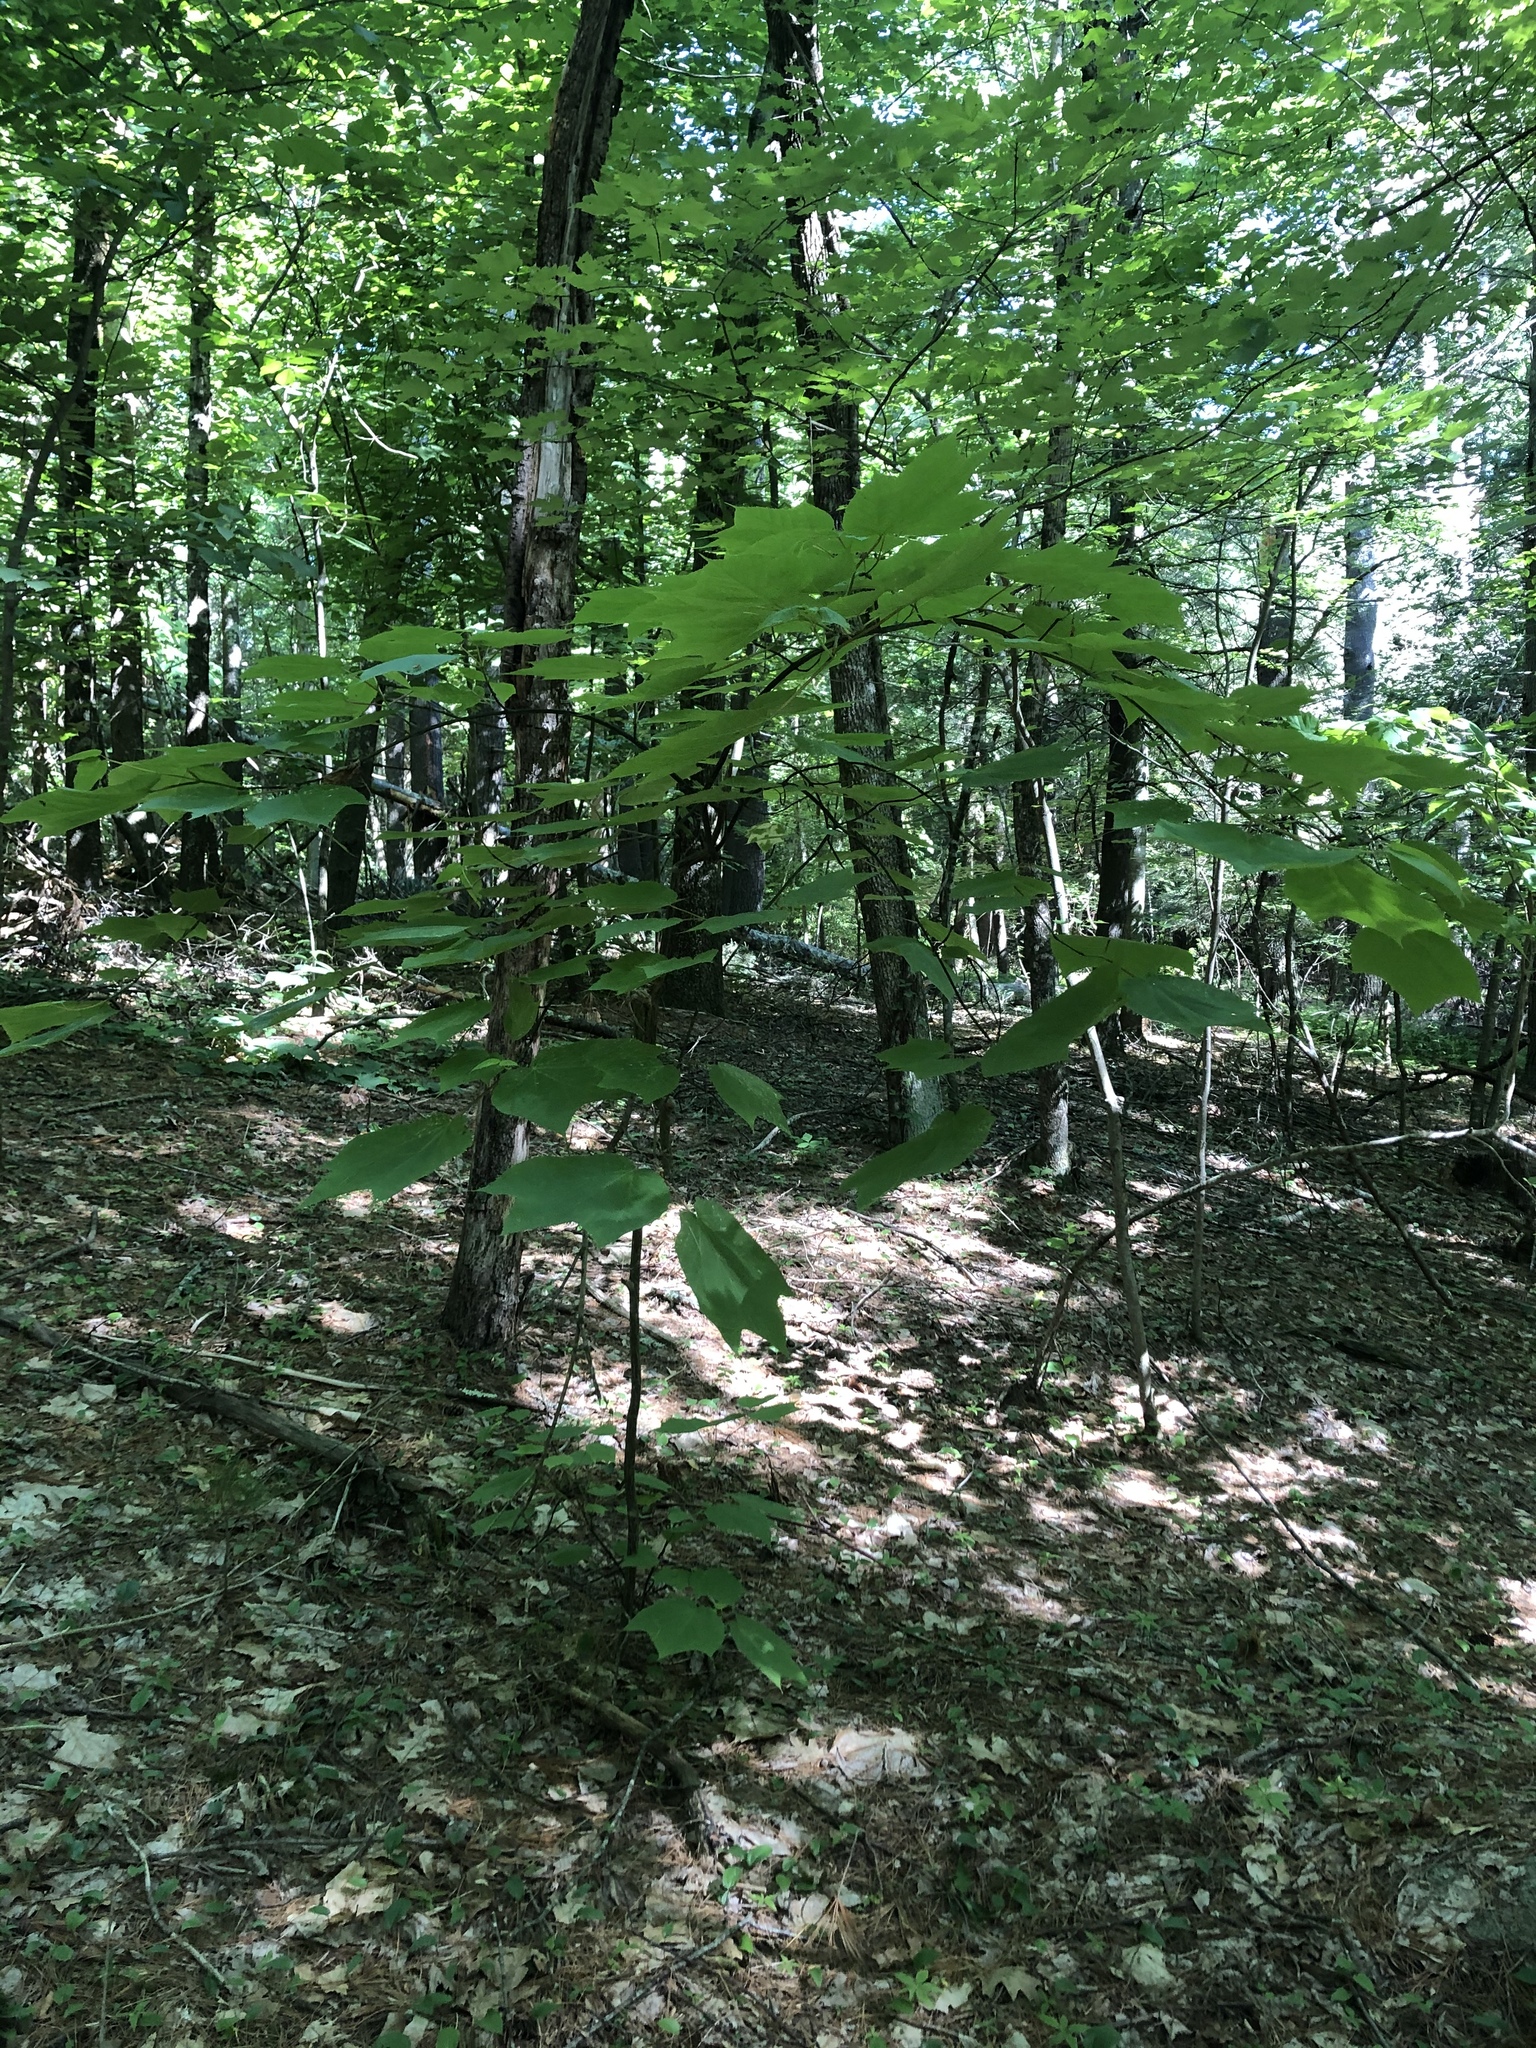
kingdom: Plantae
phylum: Tracheophyta
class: Magnoliopsida
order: Sapindales
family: Sapindaceae
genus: Acer
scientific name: Acer pensylvanicum
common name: Moosewood
